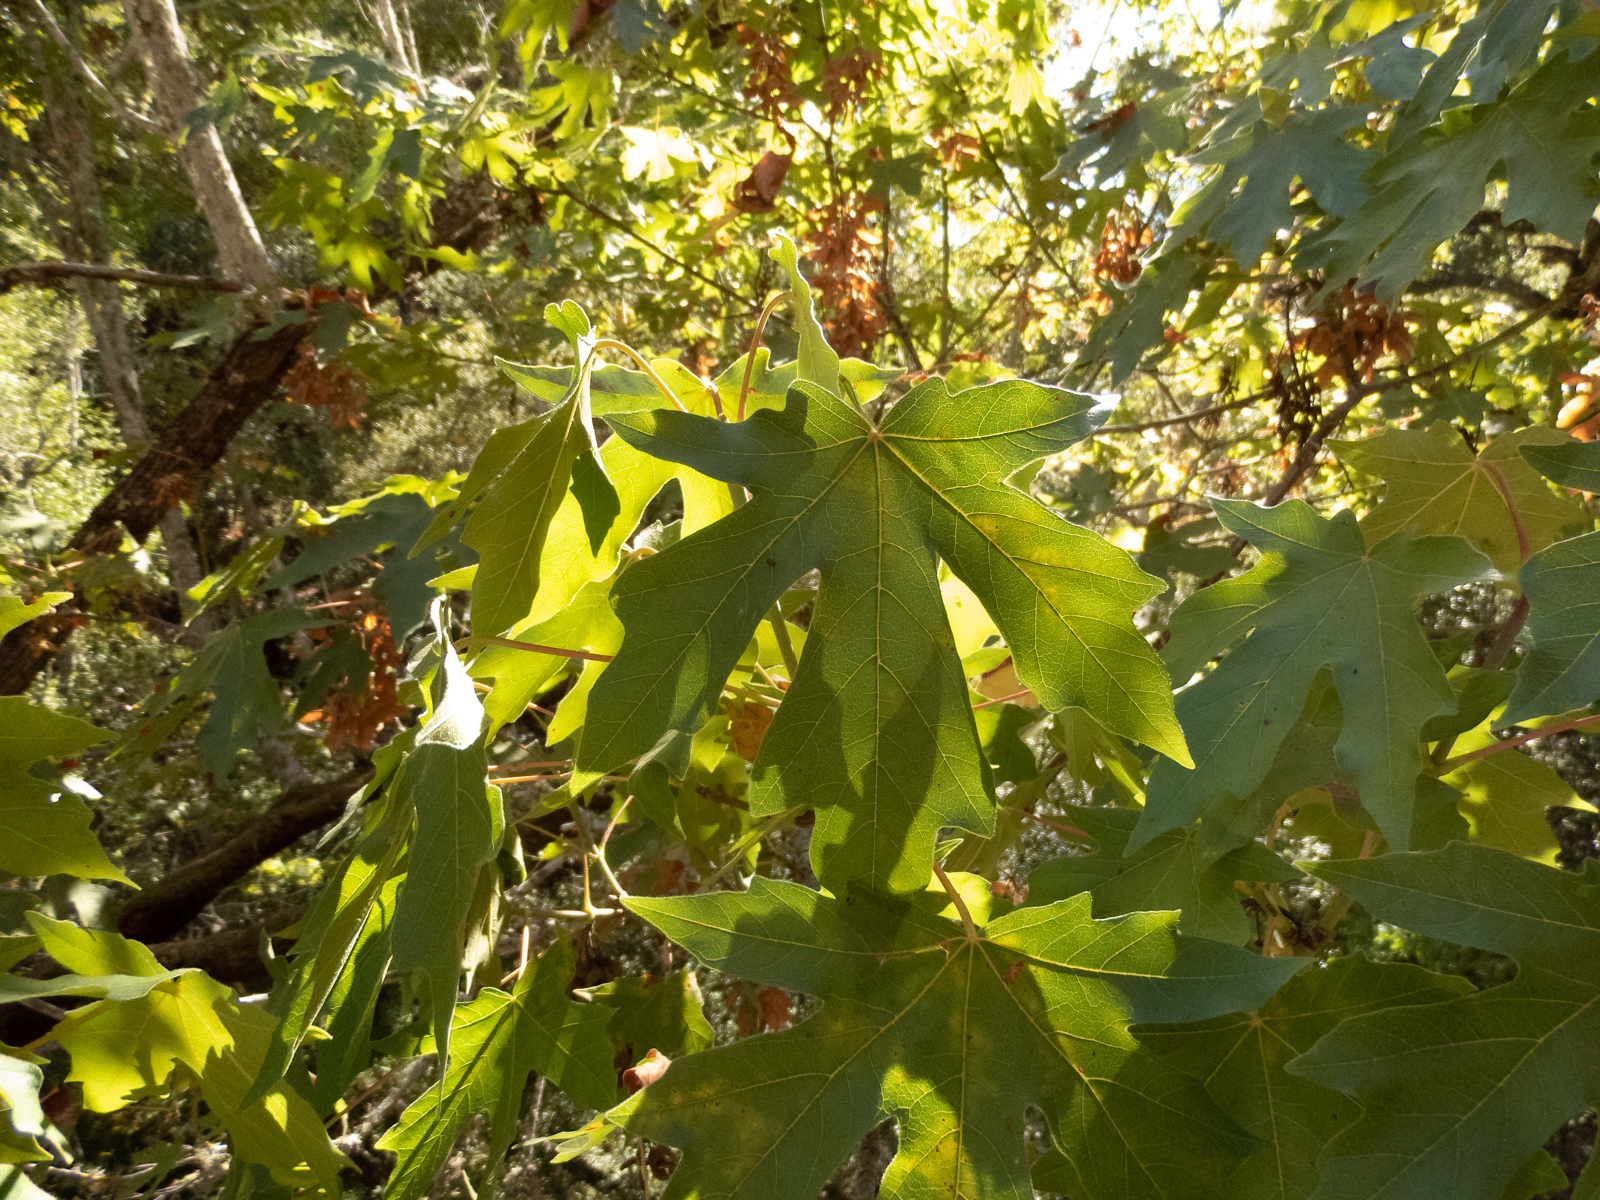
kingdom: Plantae
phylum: Tracheophyta
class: Magnoliopsida
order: Sapindales
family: Sapindaceae
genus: Acer
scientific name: Acer macrophyllum
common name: Oregon maple
